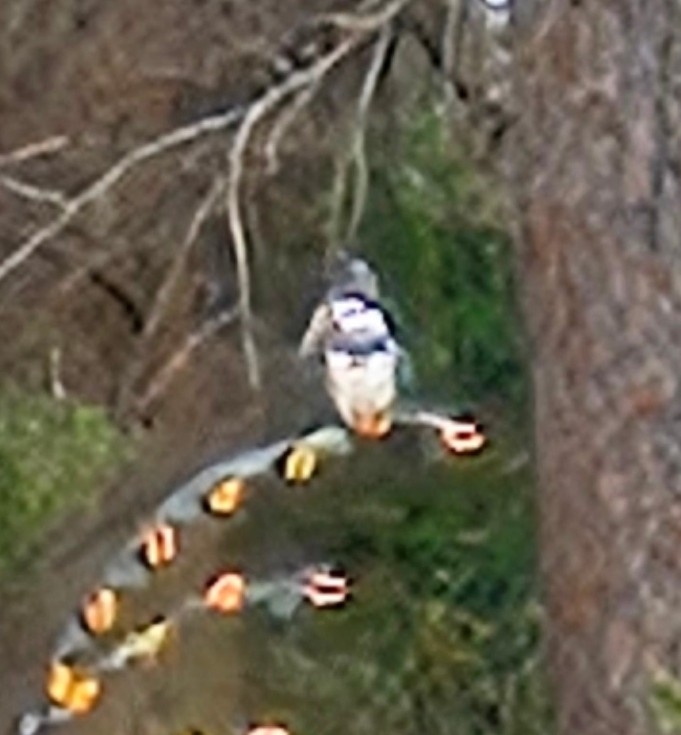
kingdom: Animalia
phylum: Chordata
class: Aves
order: Coraciiformes
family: Alcedinidae
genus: Megaceryle
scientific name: Megaceryle alcyon
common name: Belted kingfisher
